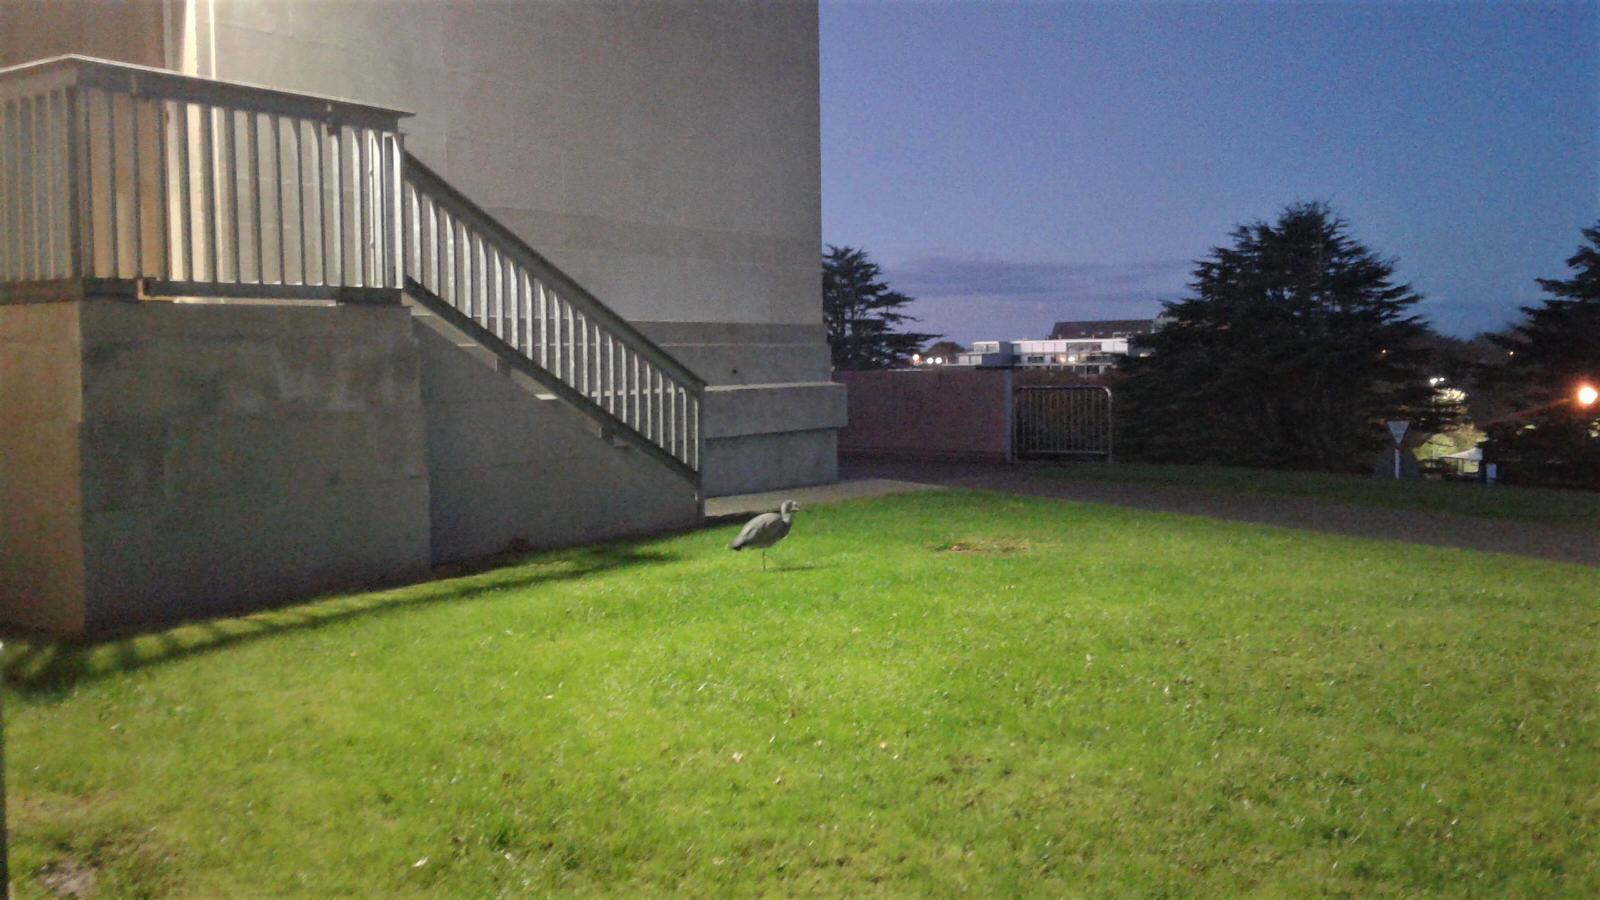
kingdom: Animalia
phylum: Chordata
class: Aves
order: Pelecaniformes
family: Ardeidae
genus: Egretta
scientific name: Egretta novaehollandiae
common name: White-faced heron
